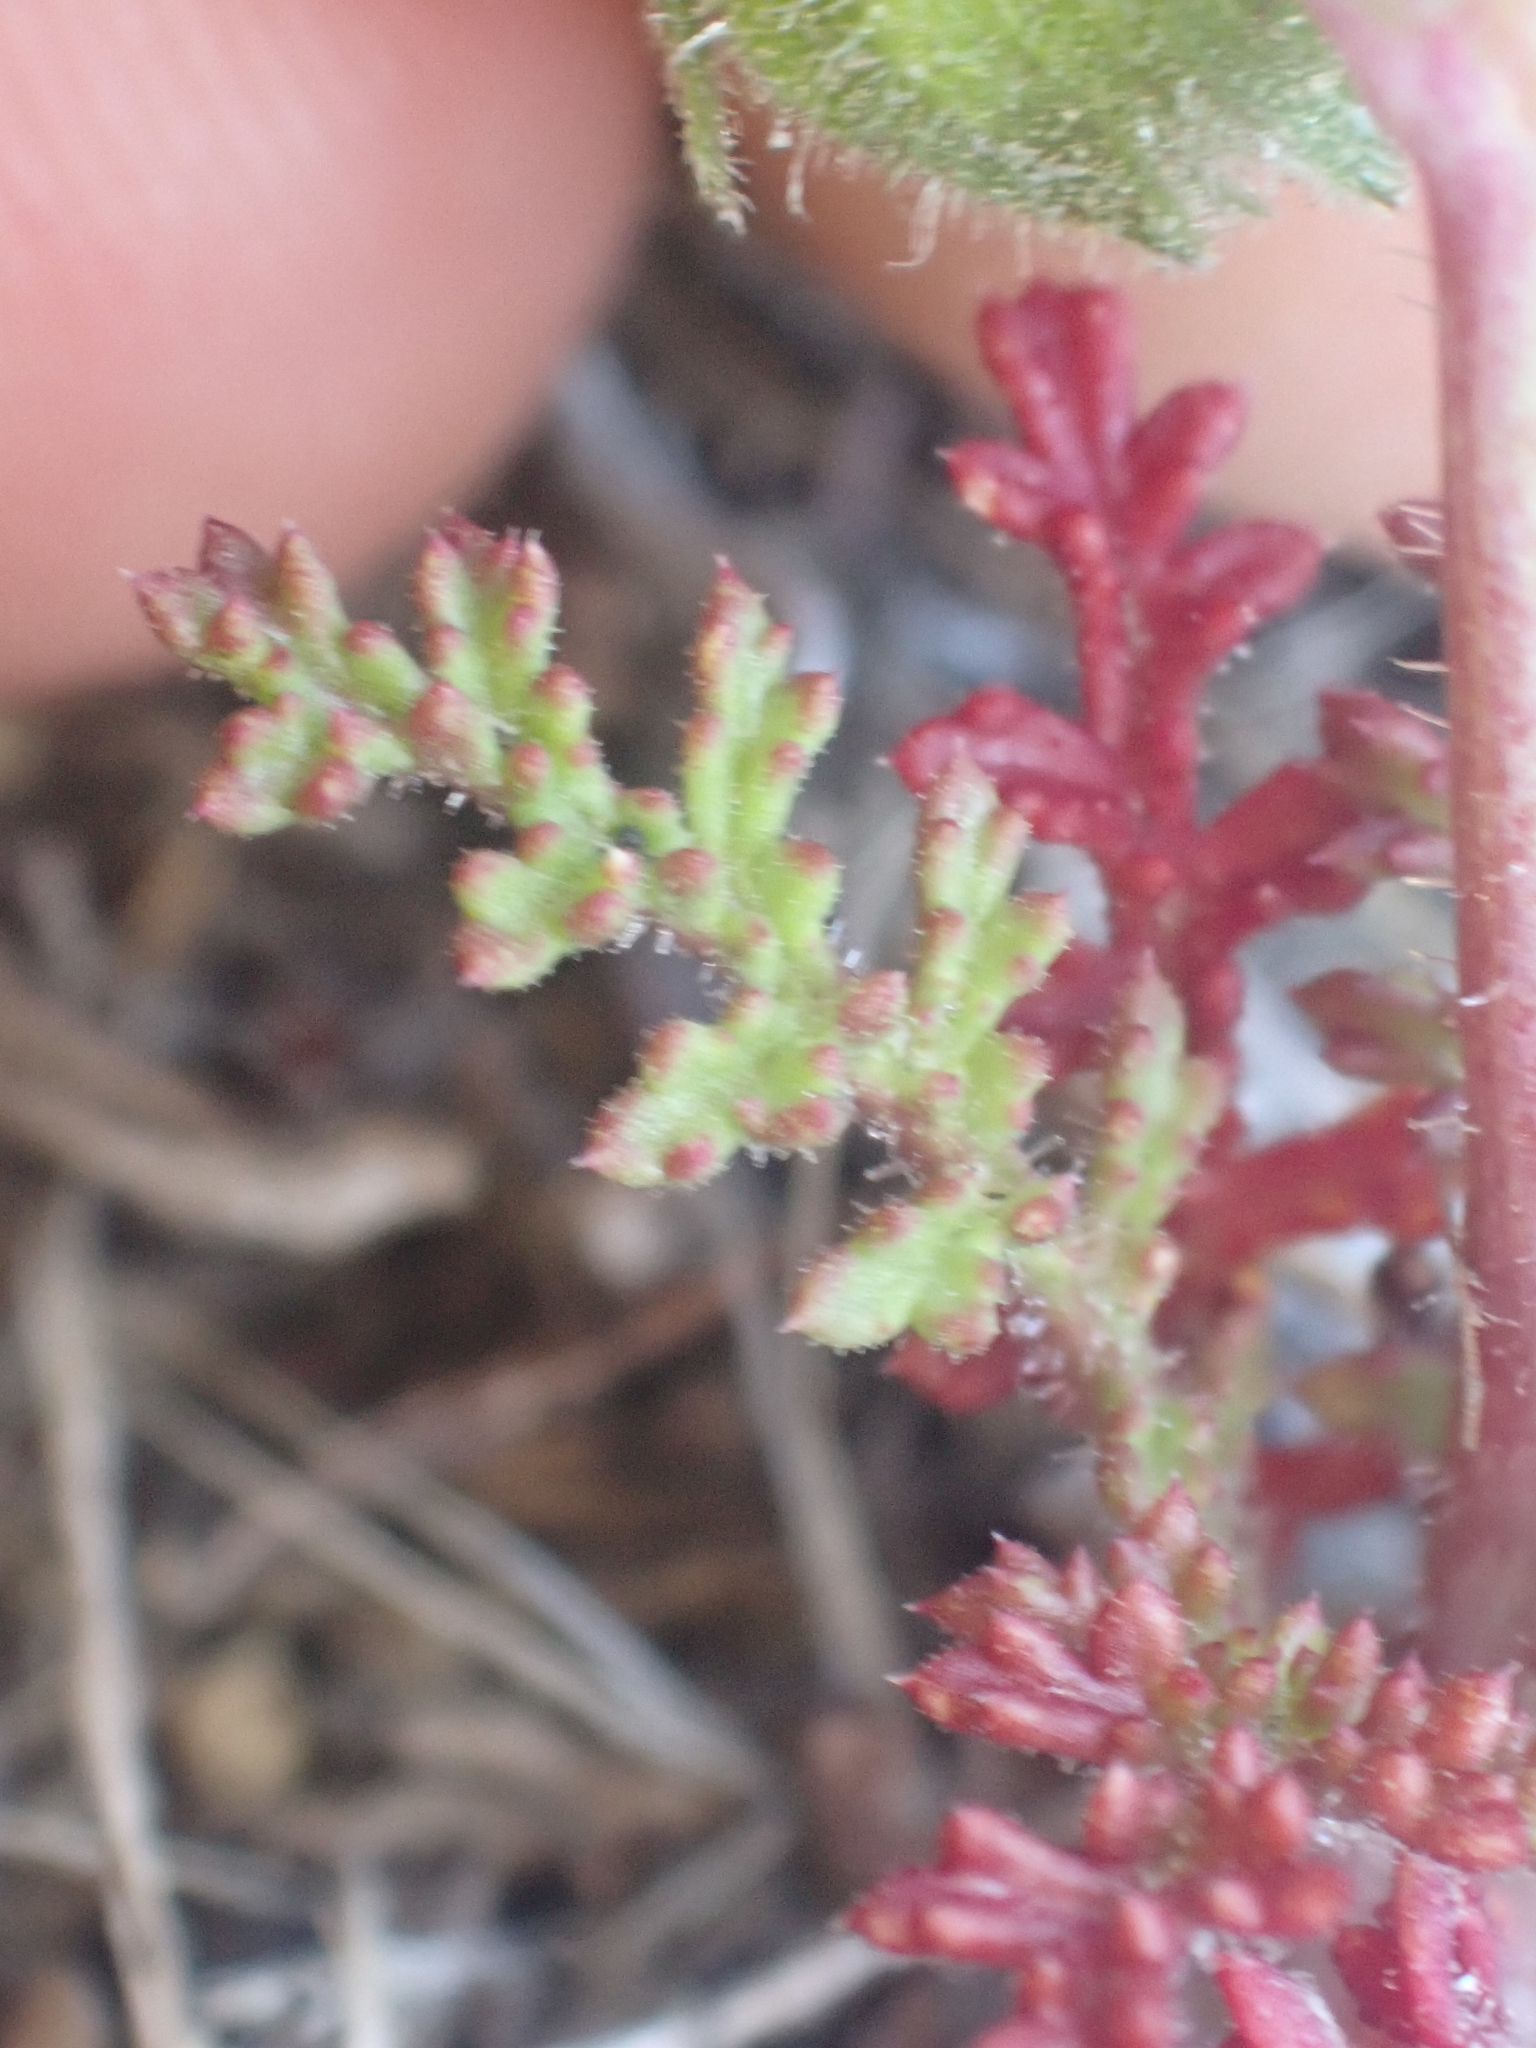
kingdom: Plantae
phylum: Tracheophyta
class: Magnoliopsida
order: Ericales
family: Polemoniaceae
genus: Saltugilia
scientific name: Saltugilia australis
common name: Southern gilia
